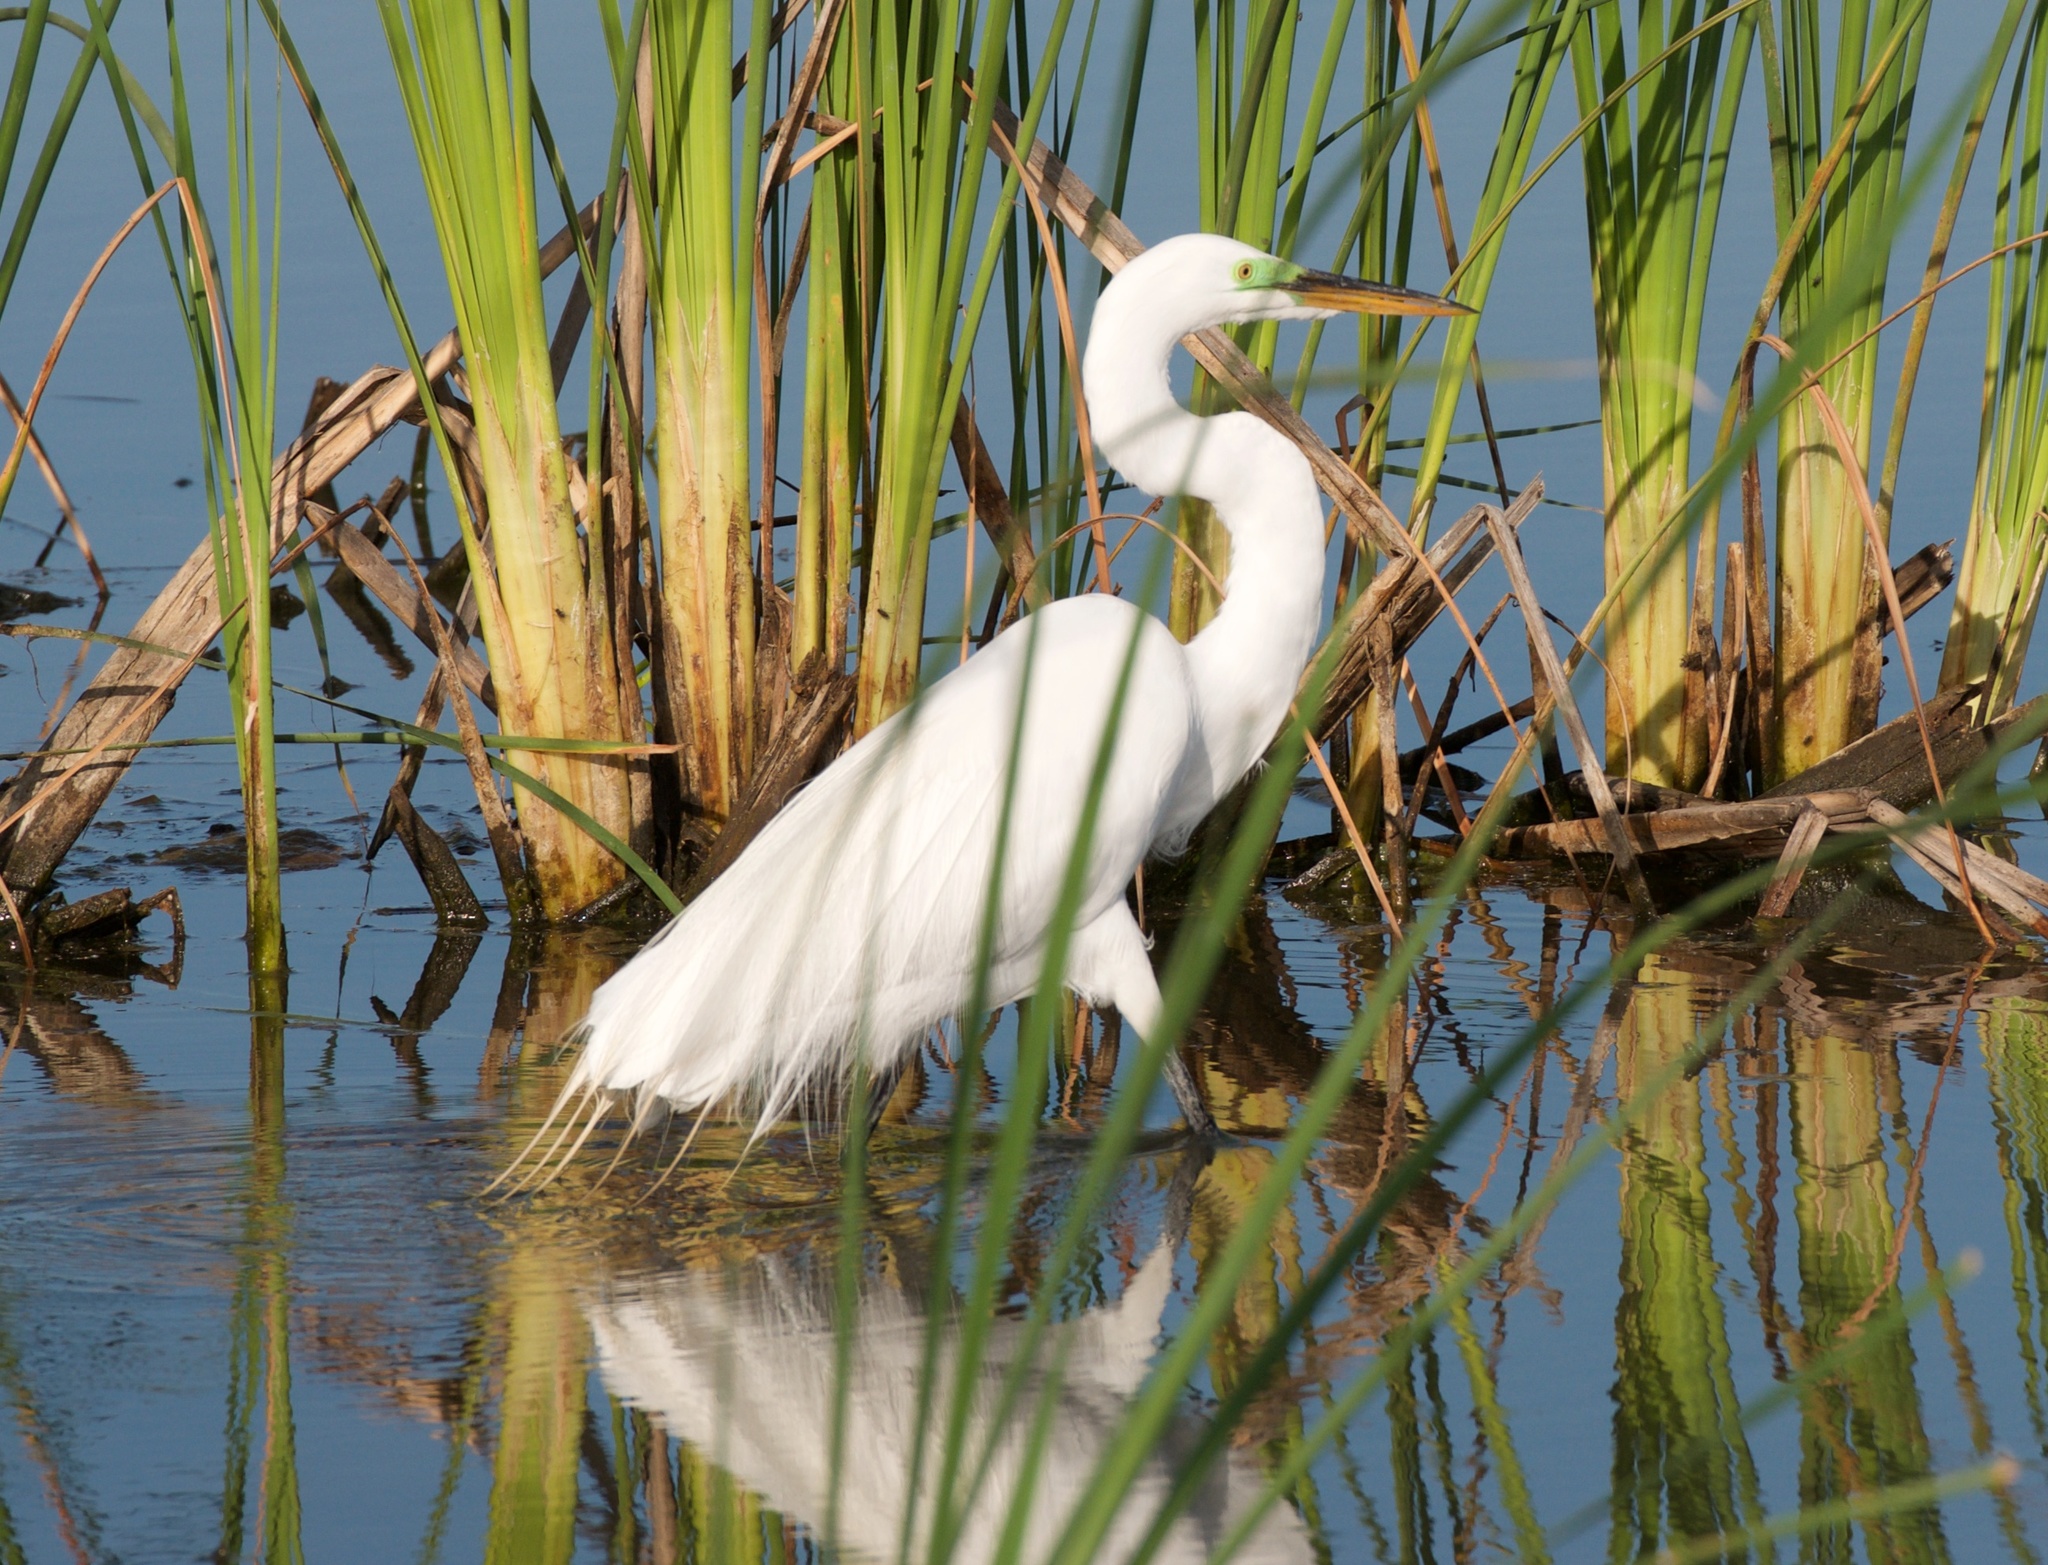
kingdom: Animalia
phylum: Chordata
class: Aves
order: Pelecaniformes
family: Ardeidae
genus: Ardea
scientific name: Ardea alba
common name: Great egret
